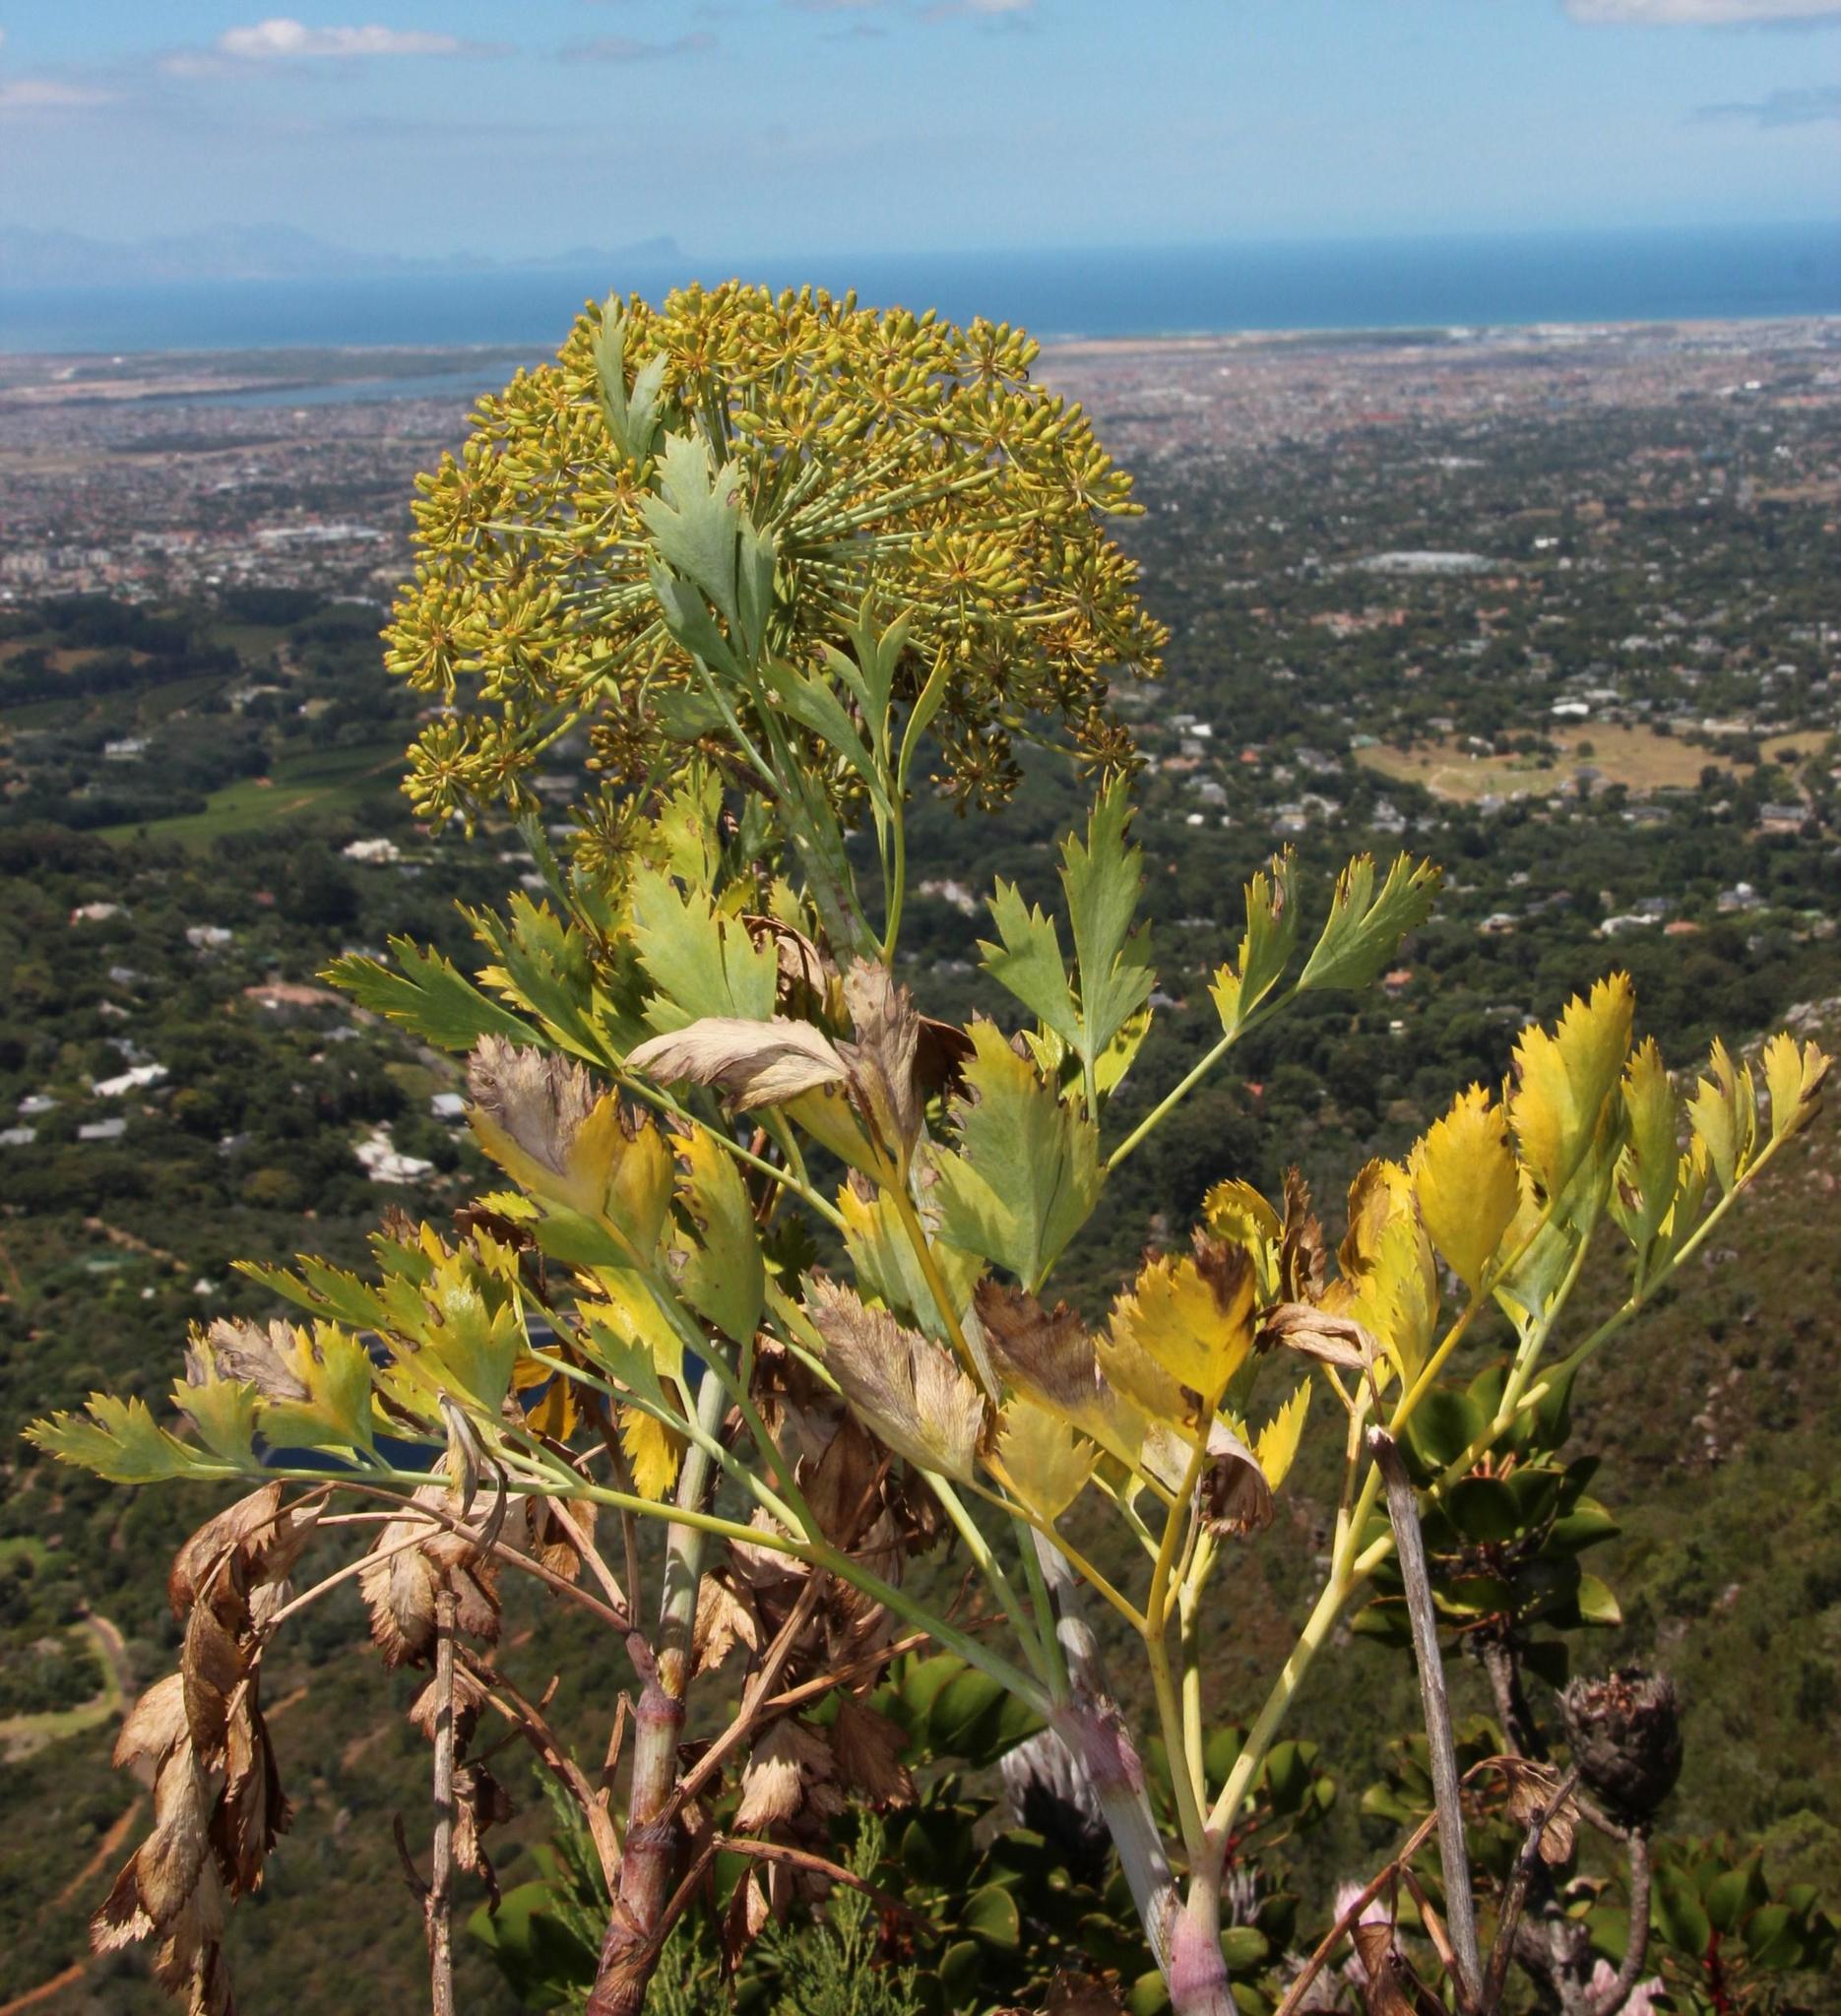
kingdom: Plantae
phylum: Tracheophyta
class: Magnoliopsida
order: Apiales
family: Apiaceae
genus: Notobubon
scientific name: Notobubon galbanum
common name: Blisterbush
